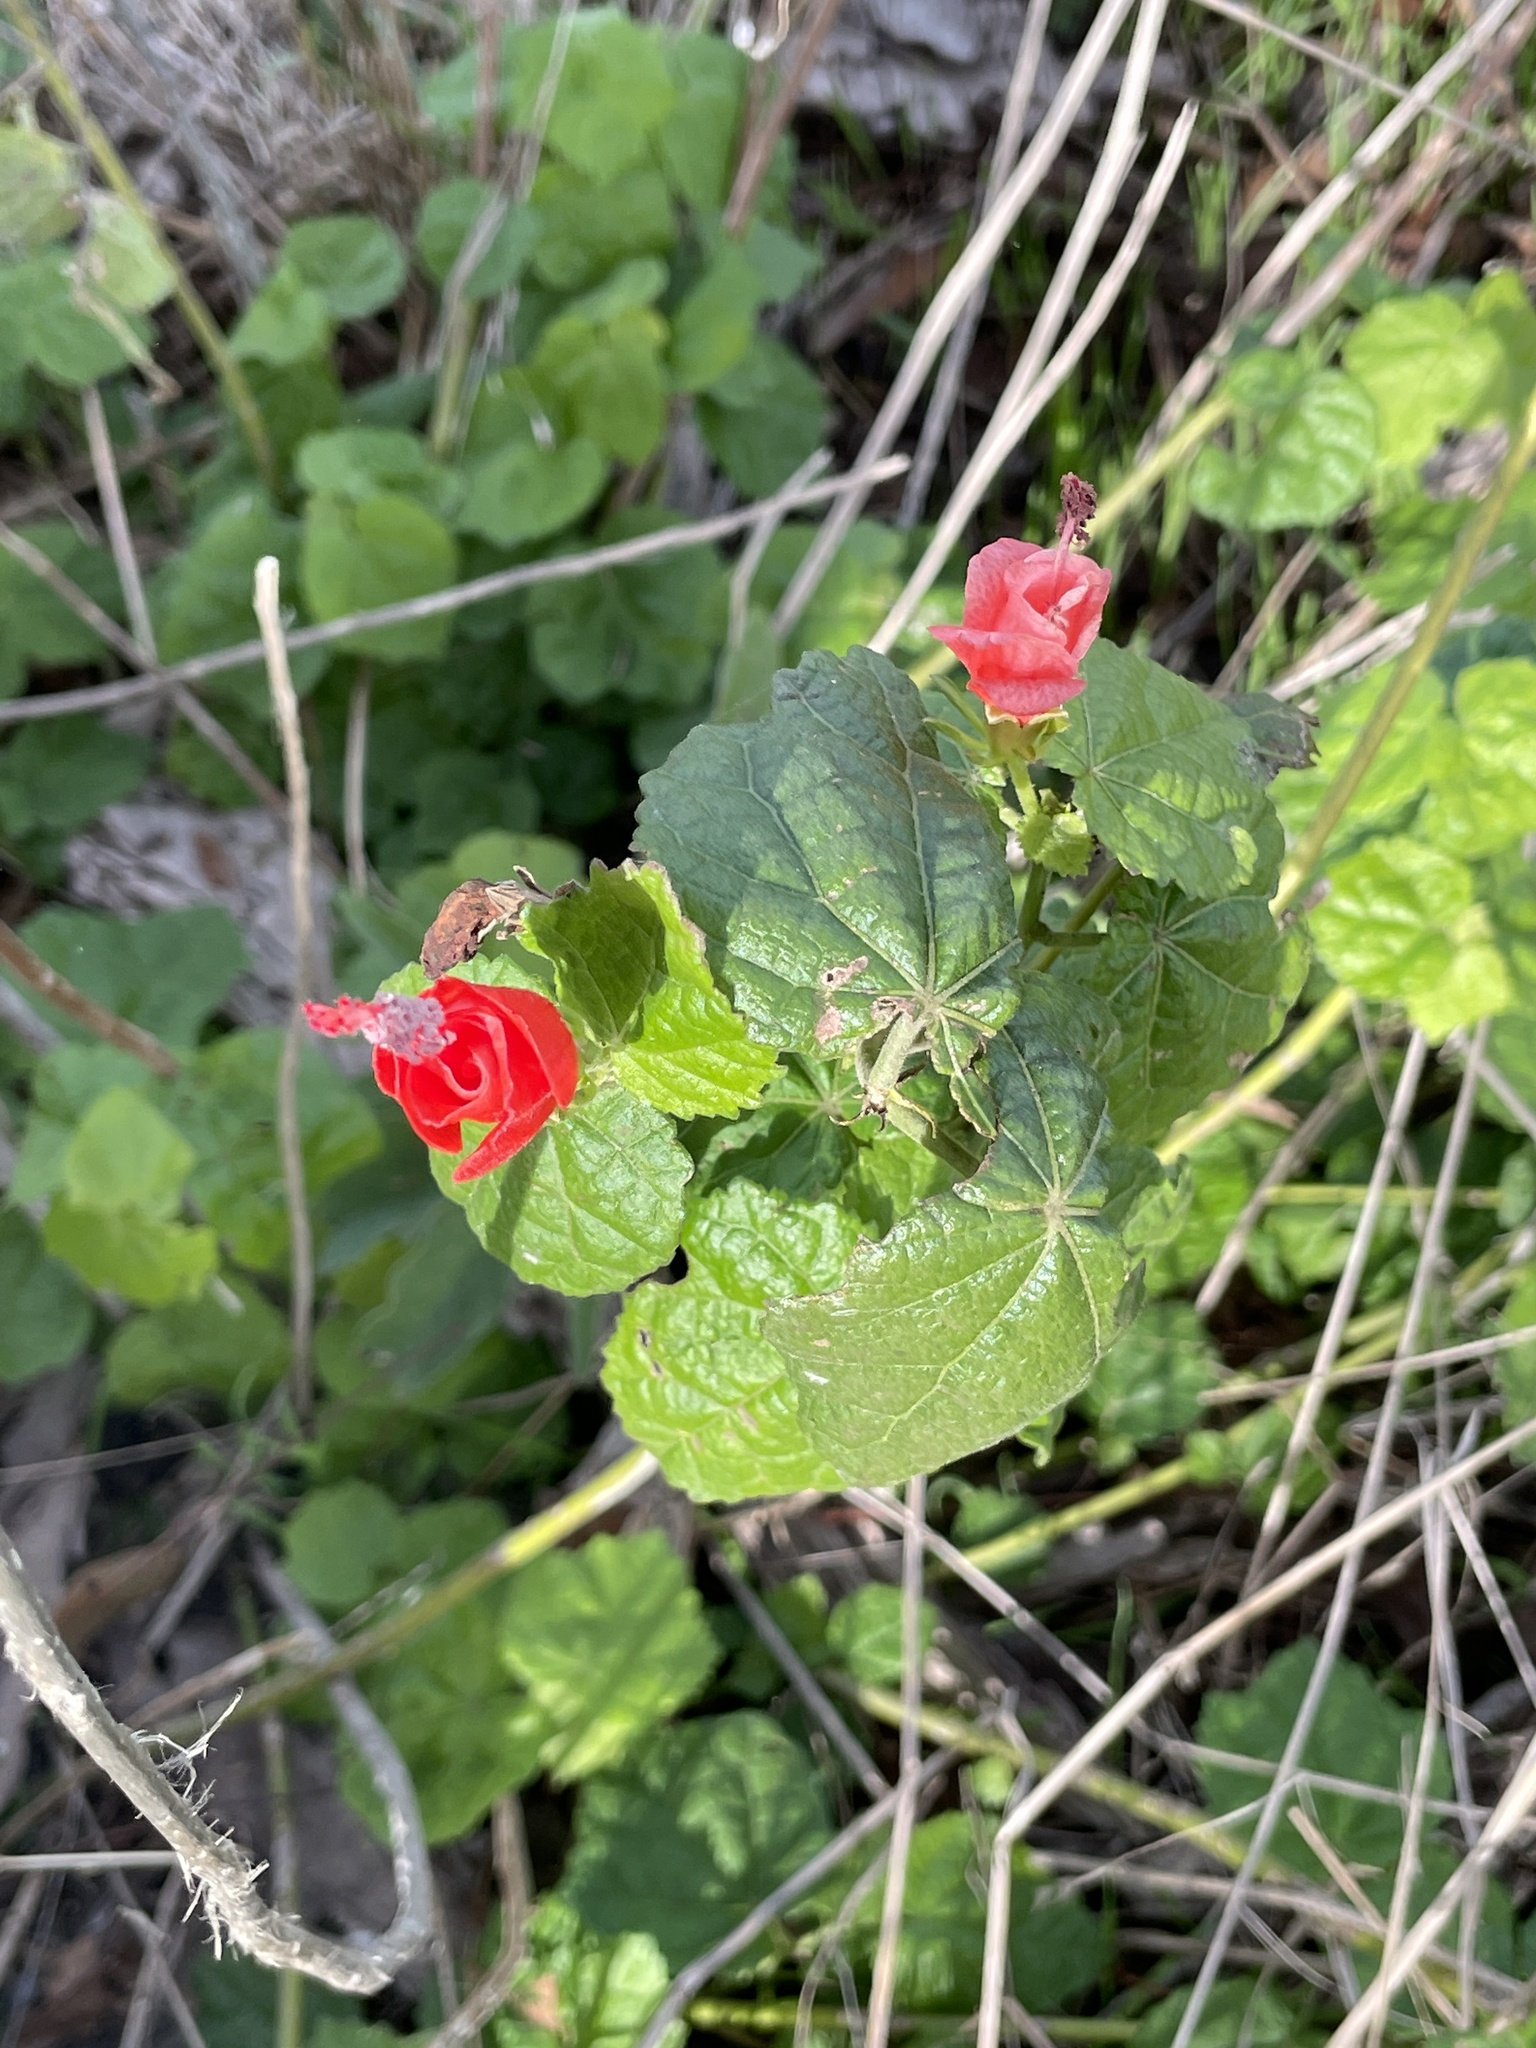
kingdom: Plantae
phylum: Tracheophyta
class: Magnoliopsida
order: Malvales
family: Malvaceae
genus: Malvaviscus
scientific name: Malvaviscus arboreus
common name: Wax mallow
